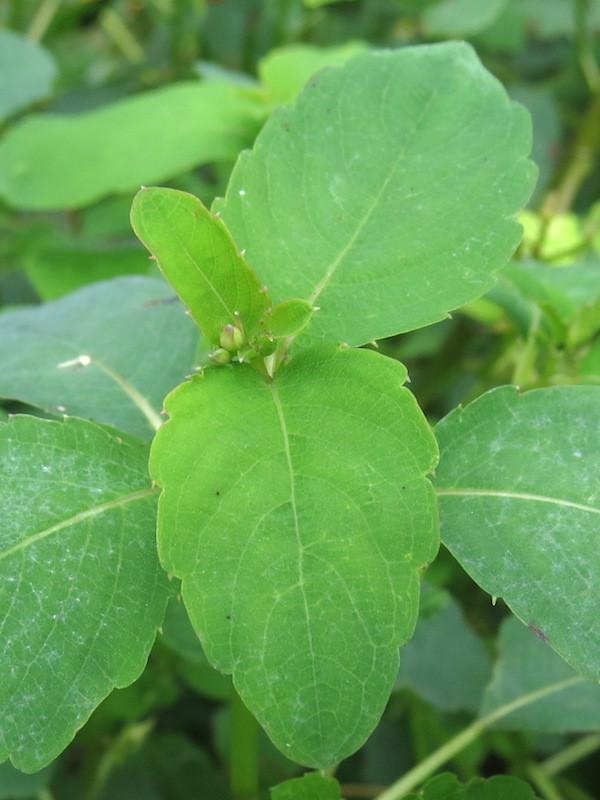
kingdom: Plantae
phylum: Tracheophyta
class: Magnoliopsida
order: Ericales
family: Balsaminaceae
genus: Impatiens
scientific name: Impatiens capensis
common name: Orange balsam
